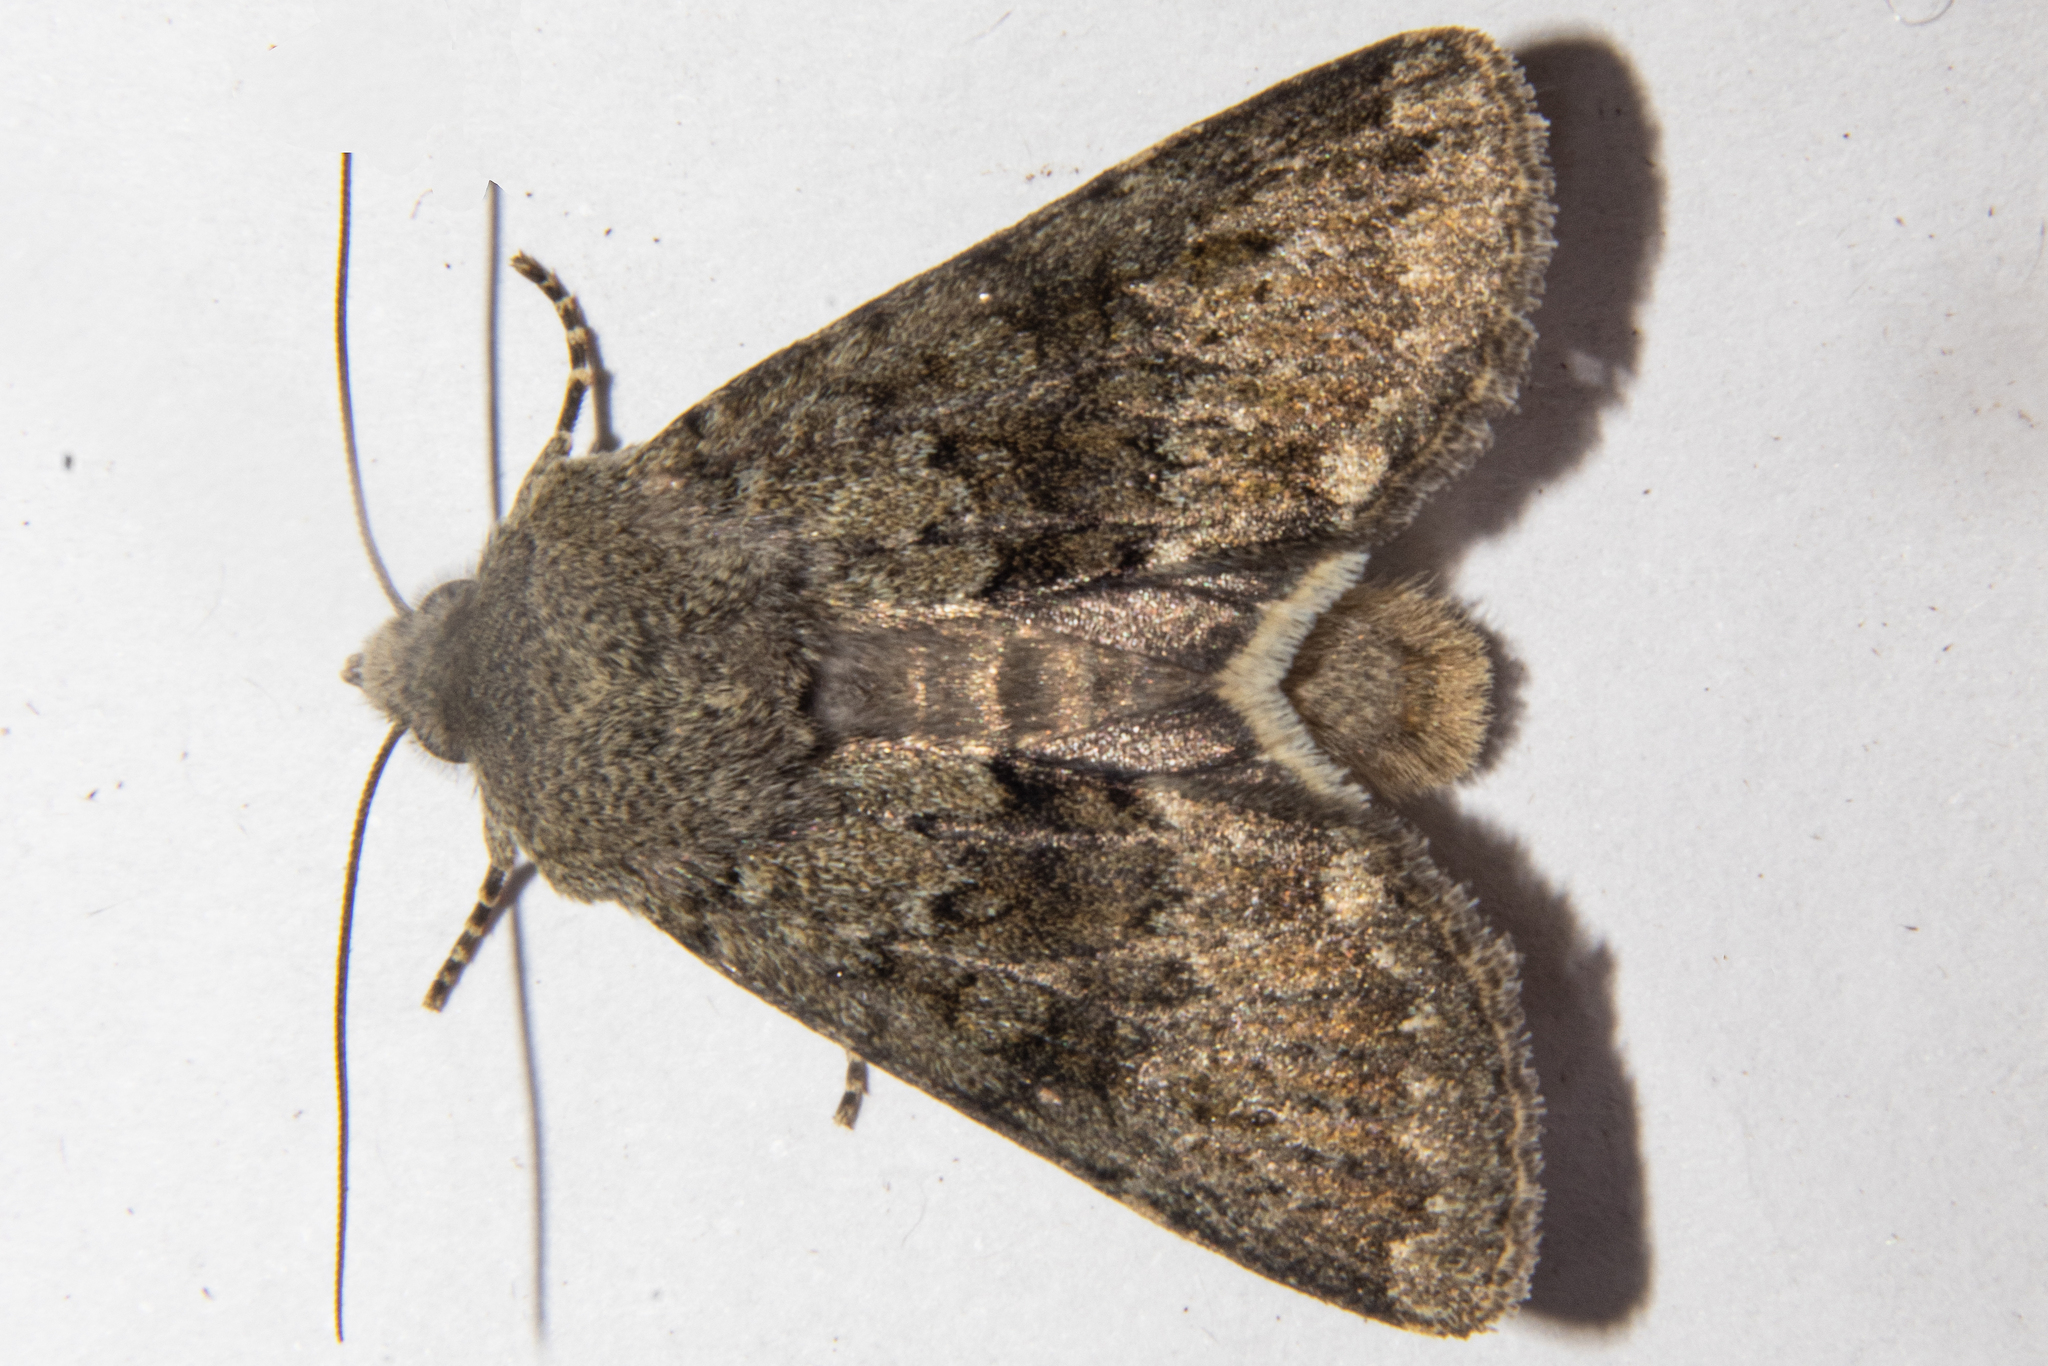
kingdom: Animalia
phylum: Arthropoda
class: Insecta
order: Lepidoptera
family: Noctuidae
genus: Ichneutica
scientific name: Ichneutica moderata
